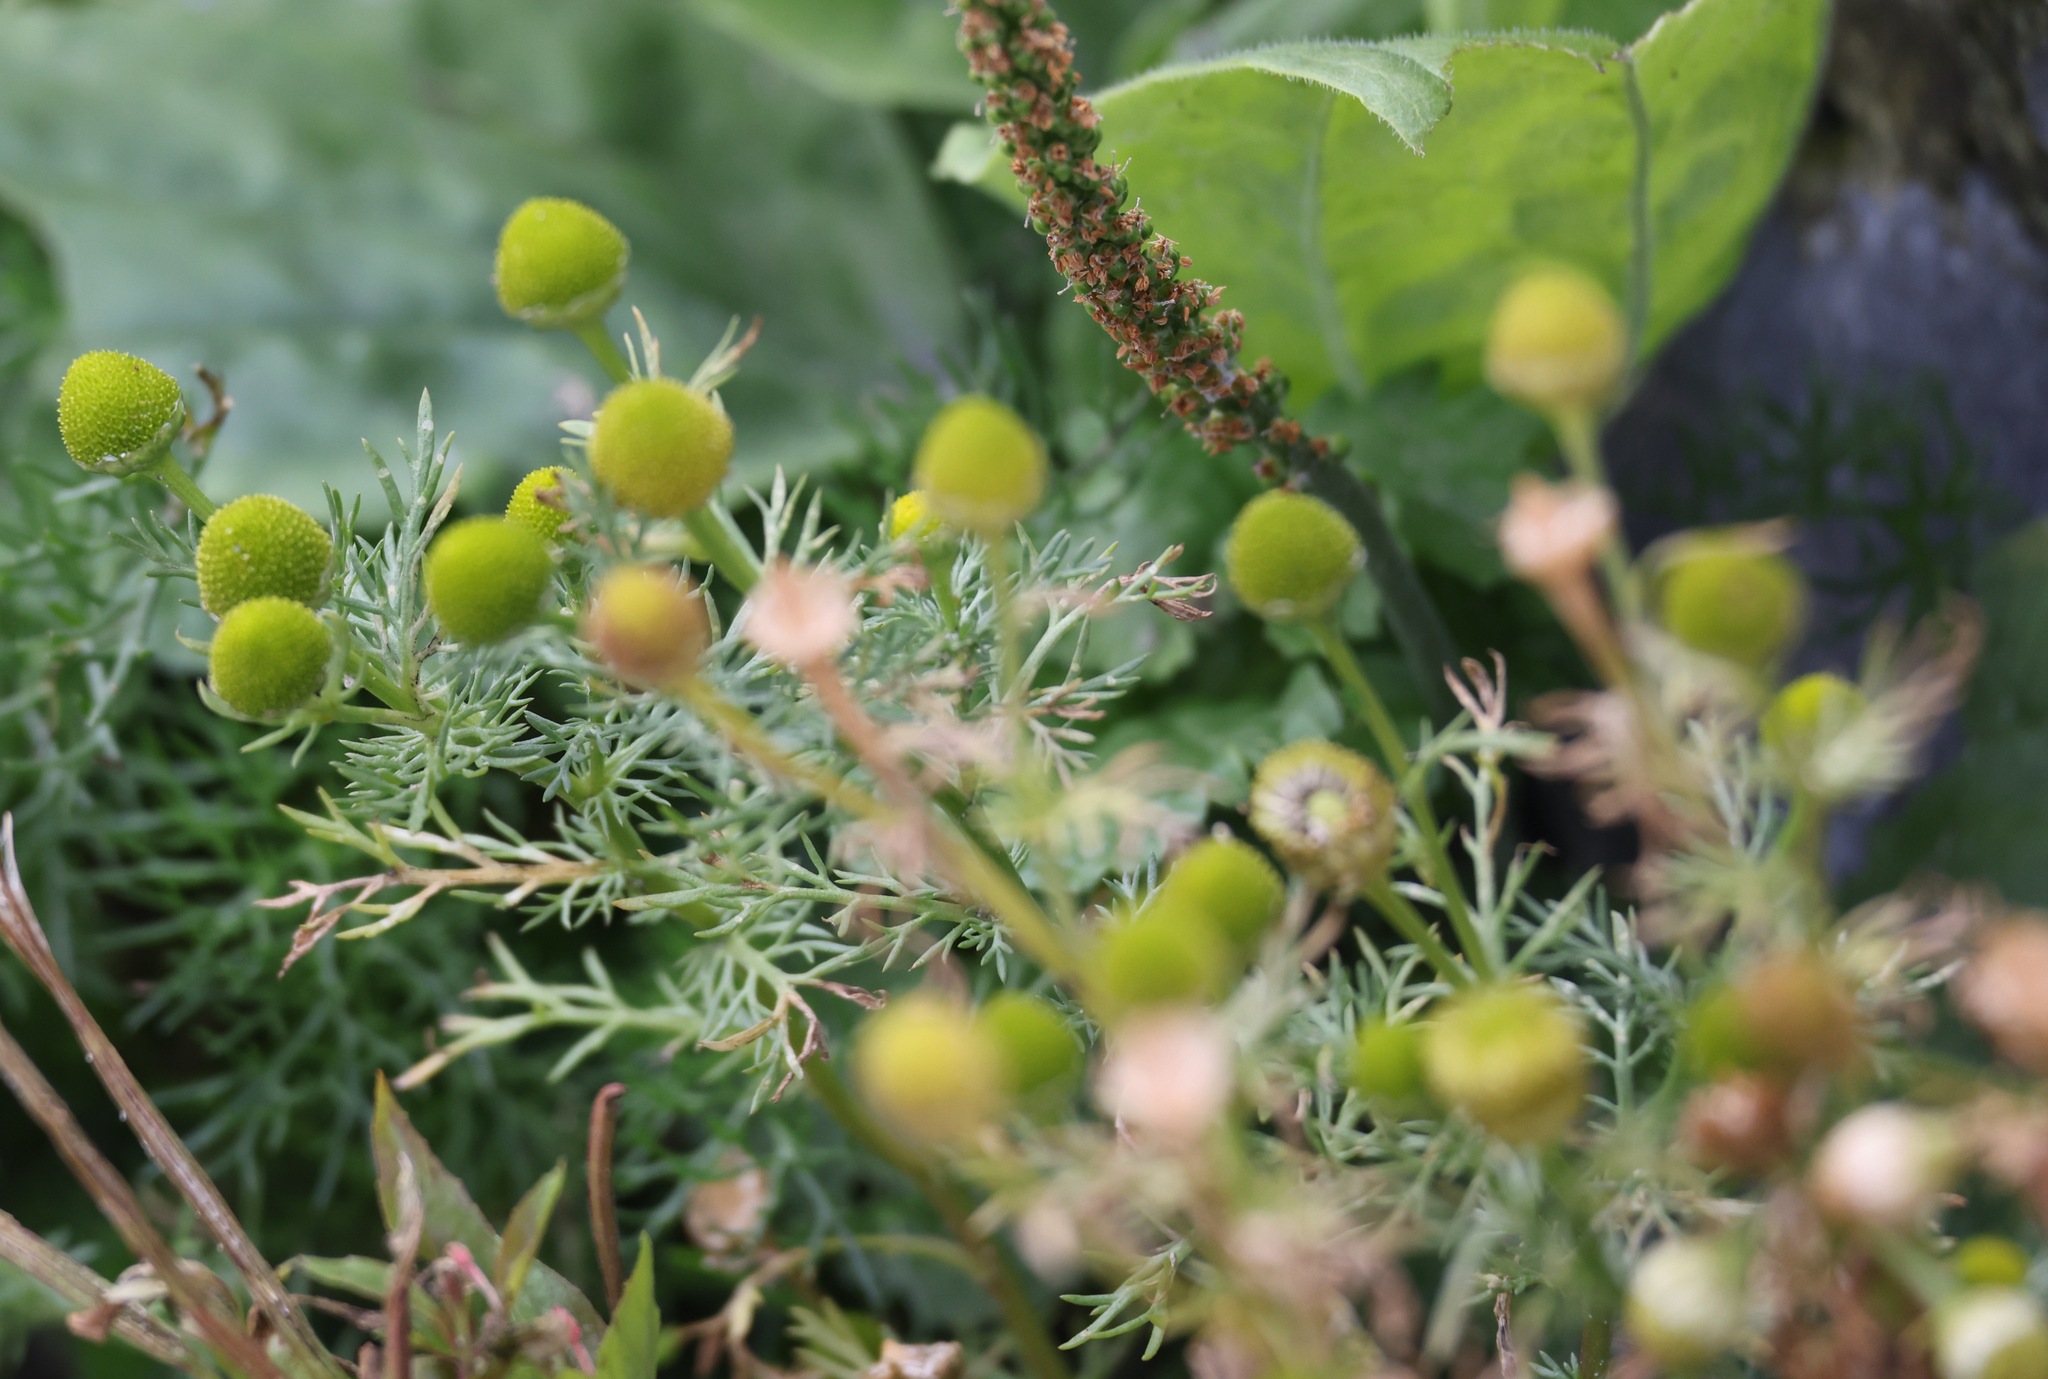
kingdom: Plantae
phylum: Tracheophyta
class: Magnoliopsida
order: Asterales
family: Asteraceae
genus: Matricaria
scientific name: Matricaria discoidea
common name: Disc mayweed
